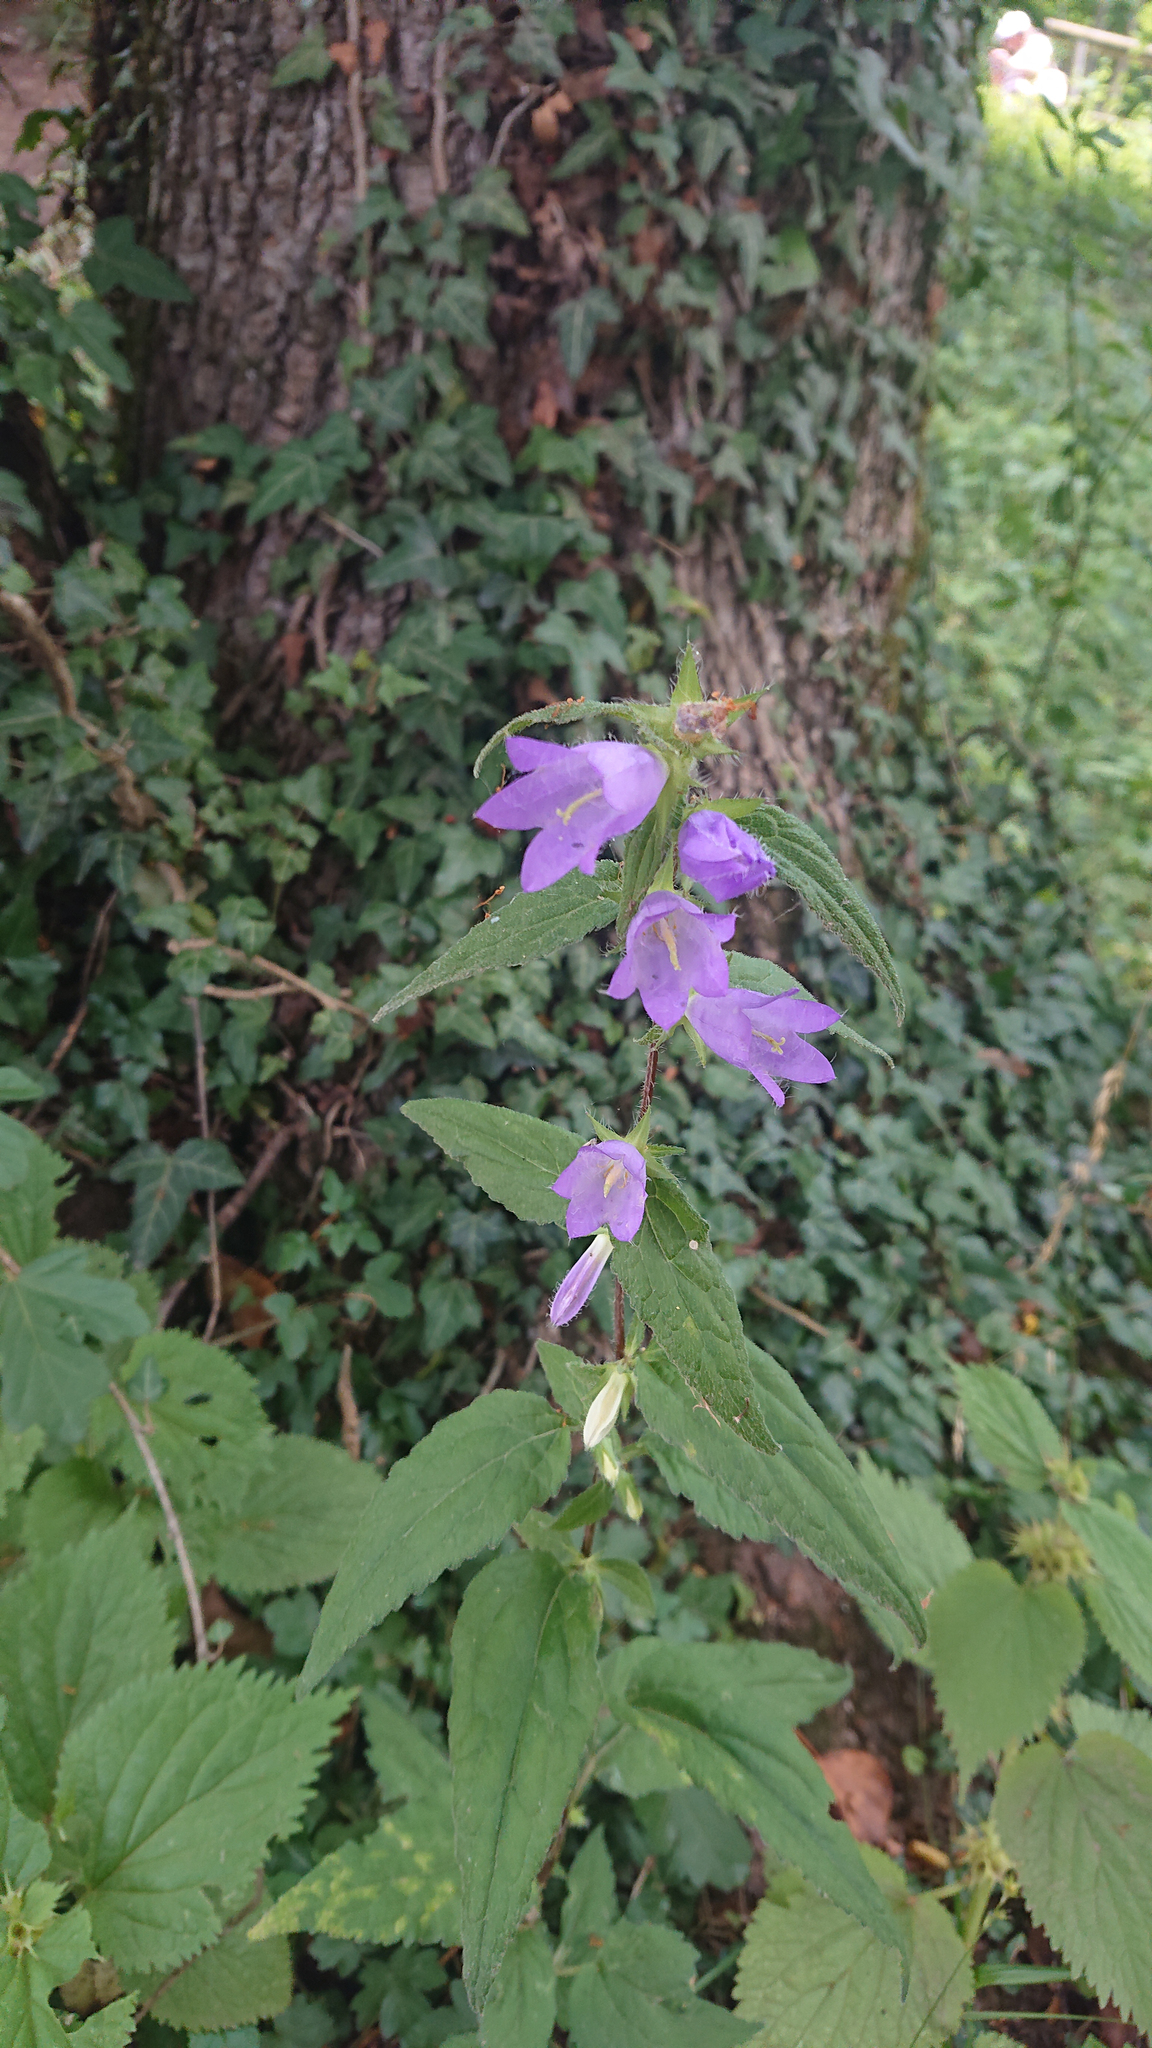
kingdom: Plantae
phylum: Tracheophyta
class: Magnoliopsida
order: Asterales
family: Campanulaceae
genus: Campanula
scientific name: Campanula trachelium
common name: Nettle-leaved bellflower
